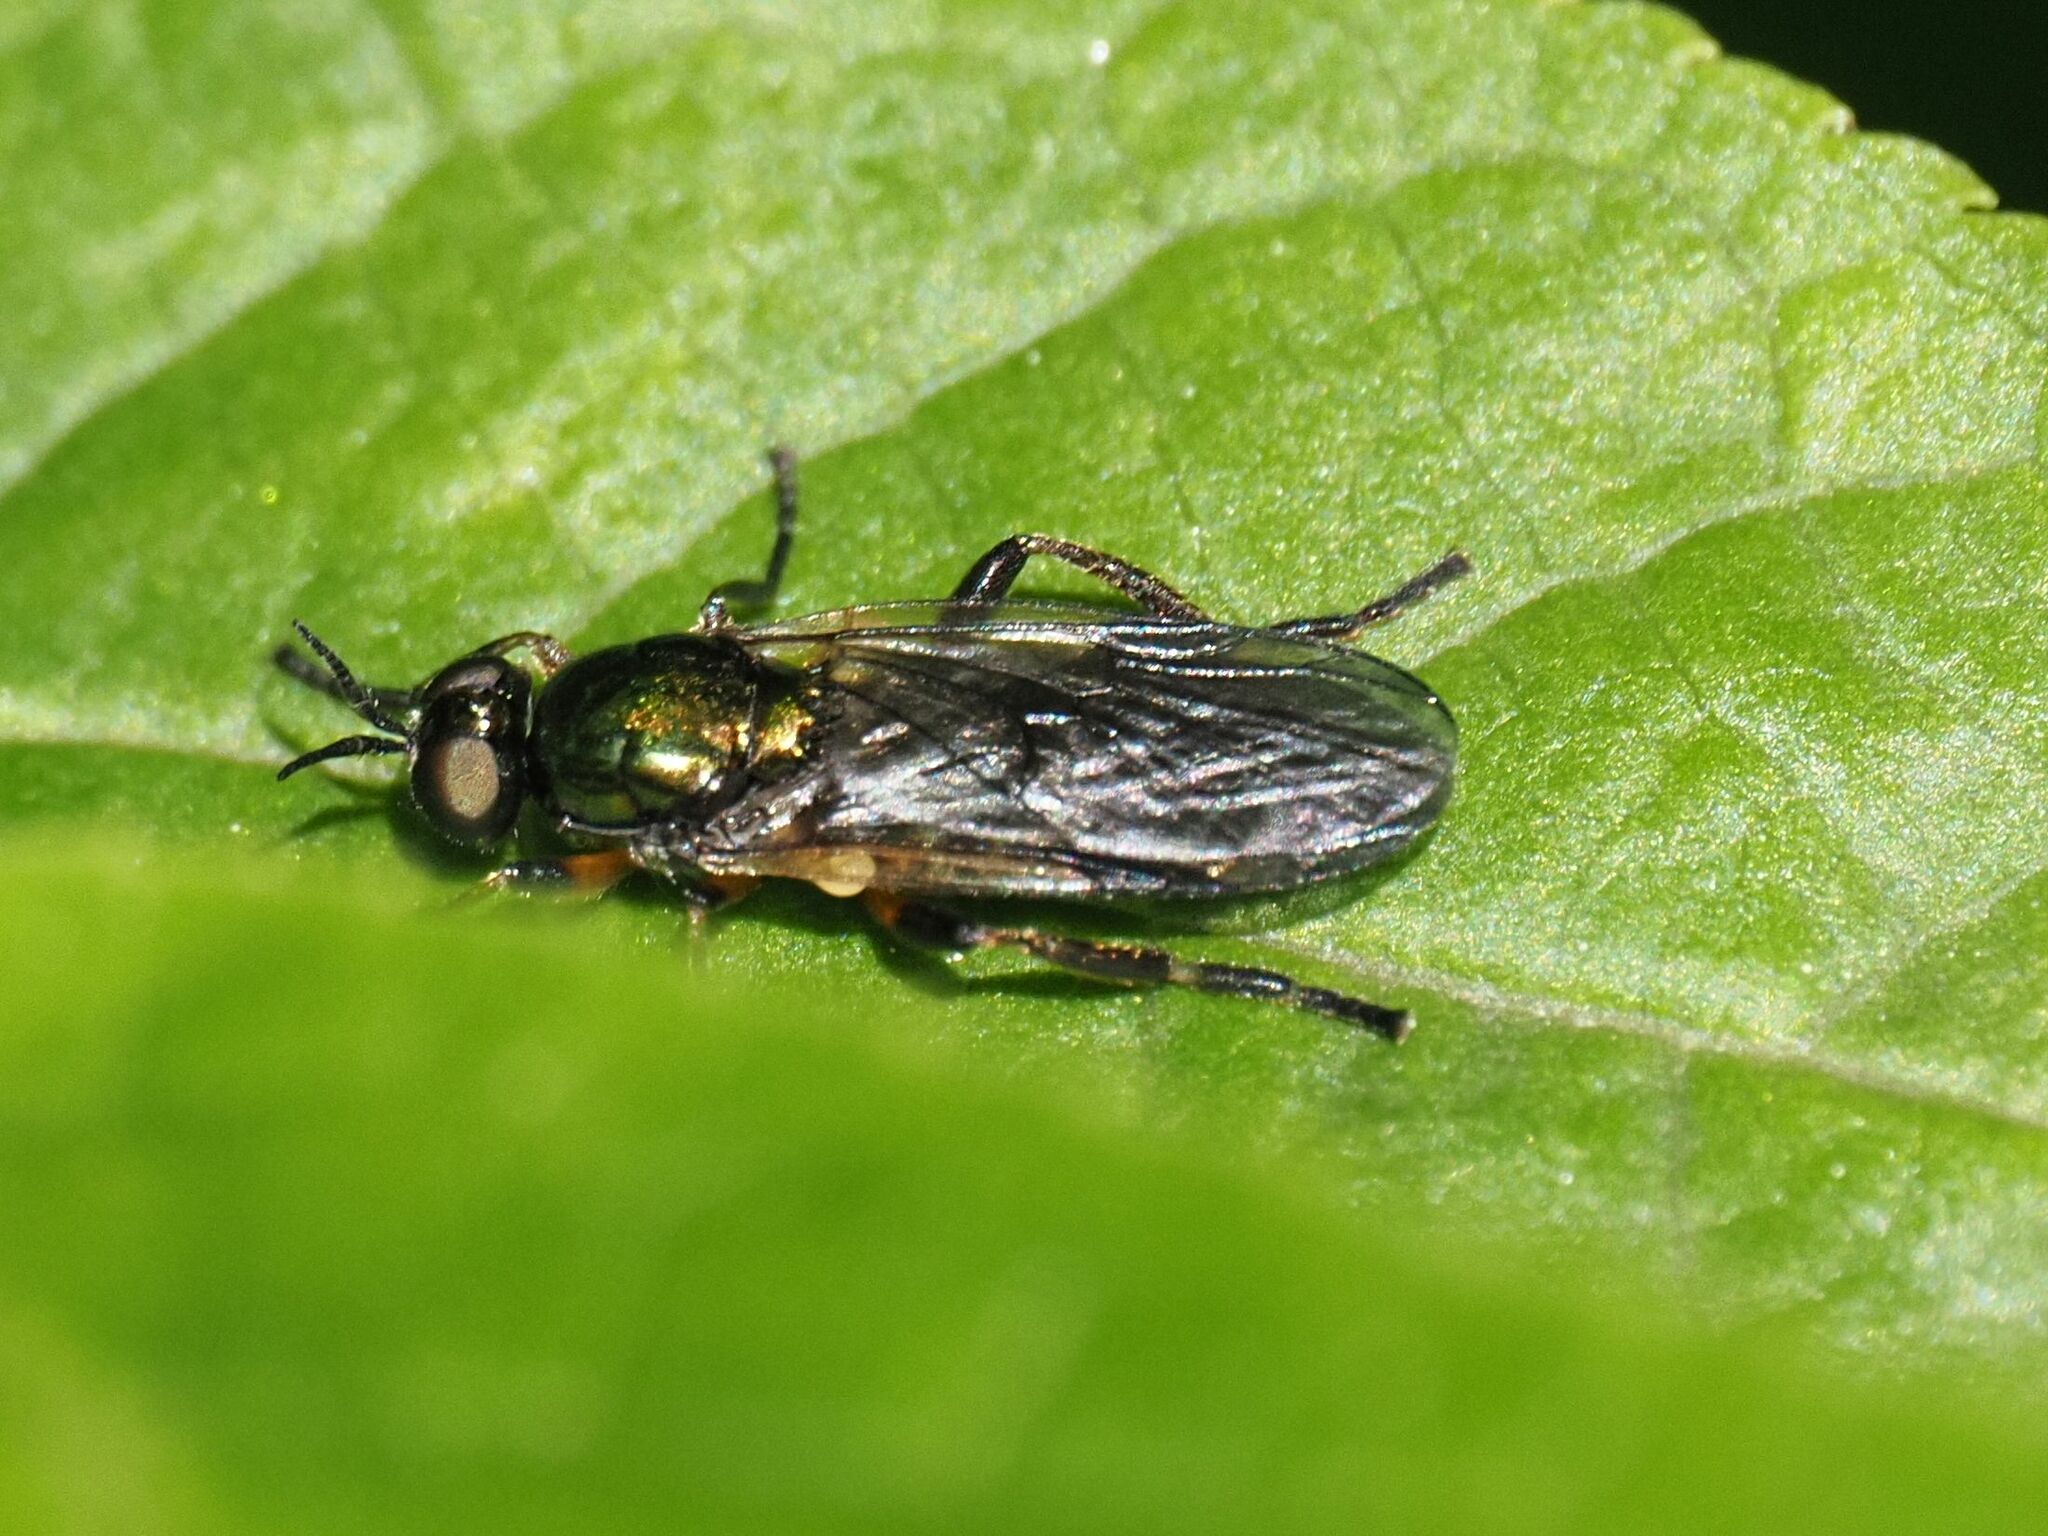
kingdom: Animalia
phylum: Arthropoda
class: Insecta
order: Diptera
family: Stratiomyidae
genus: Actina
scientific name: Actina chalybea
